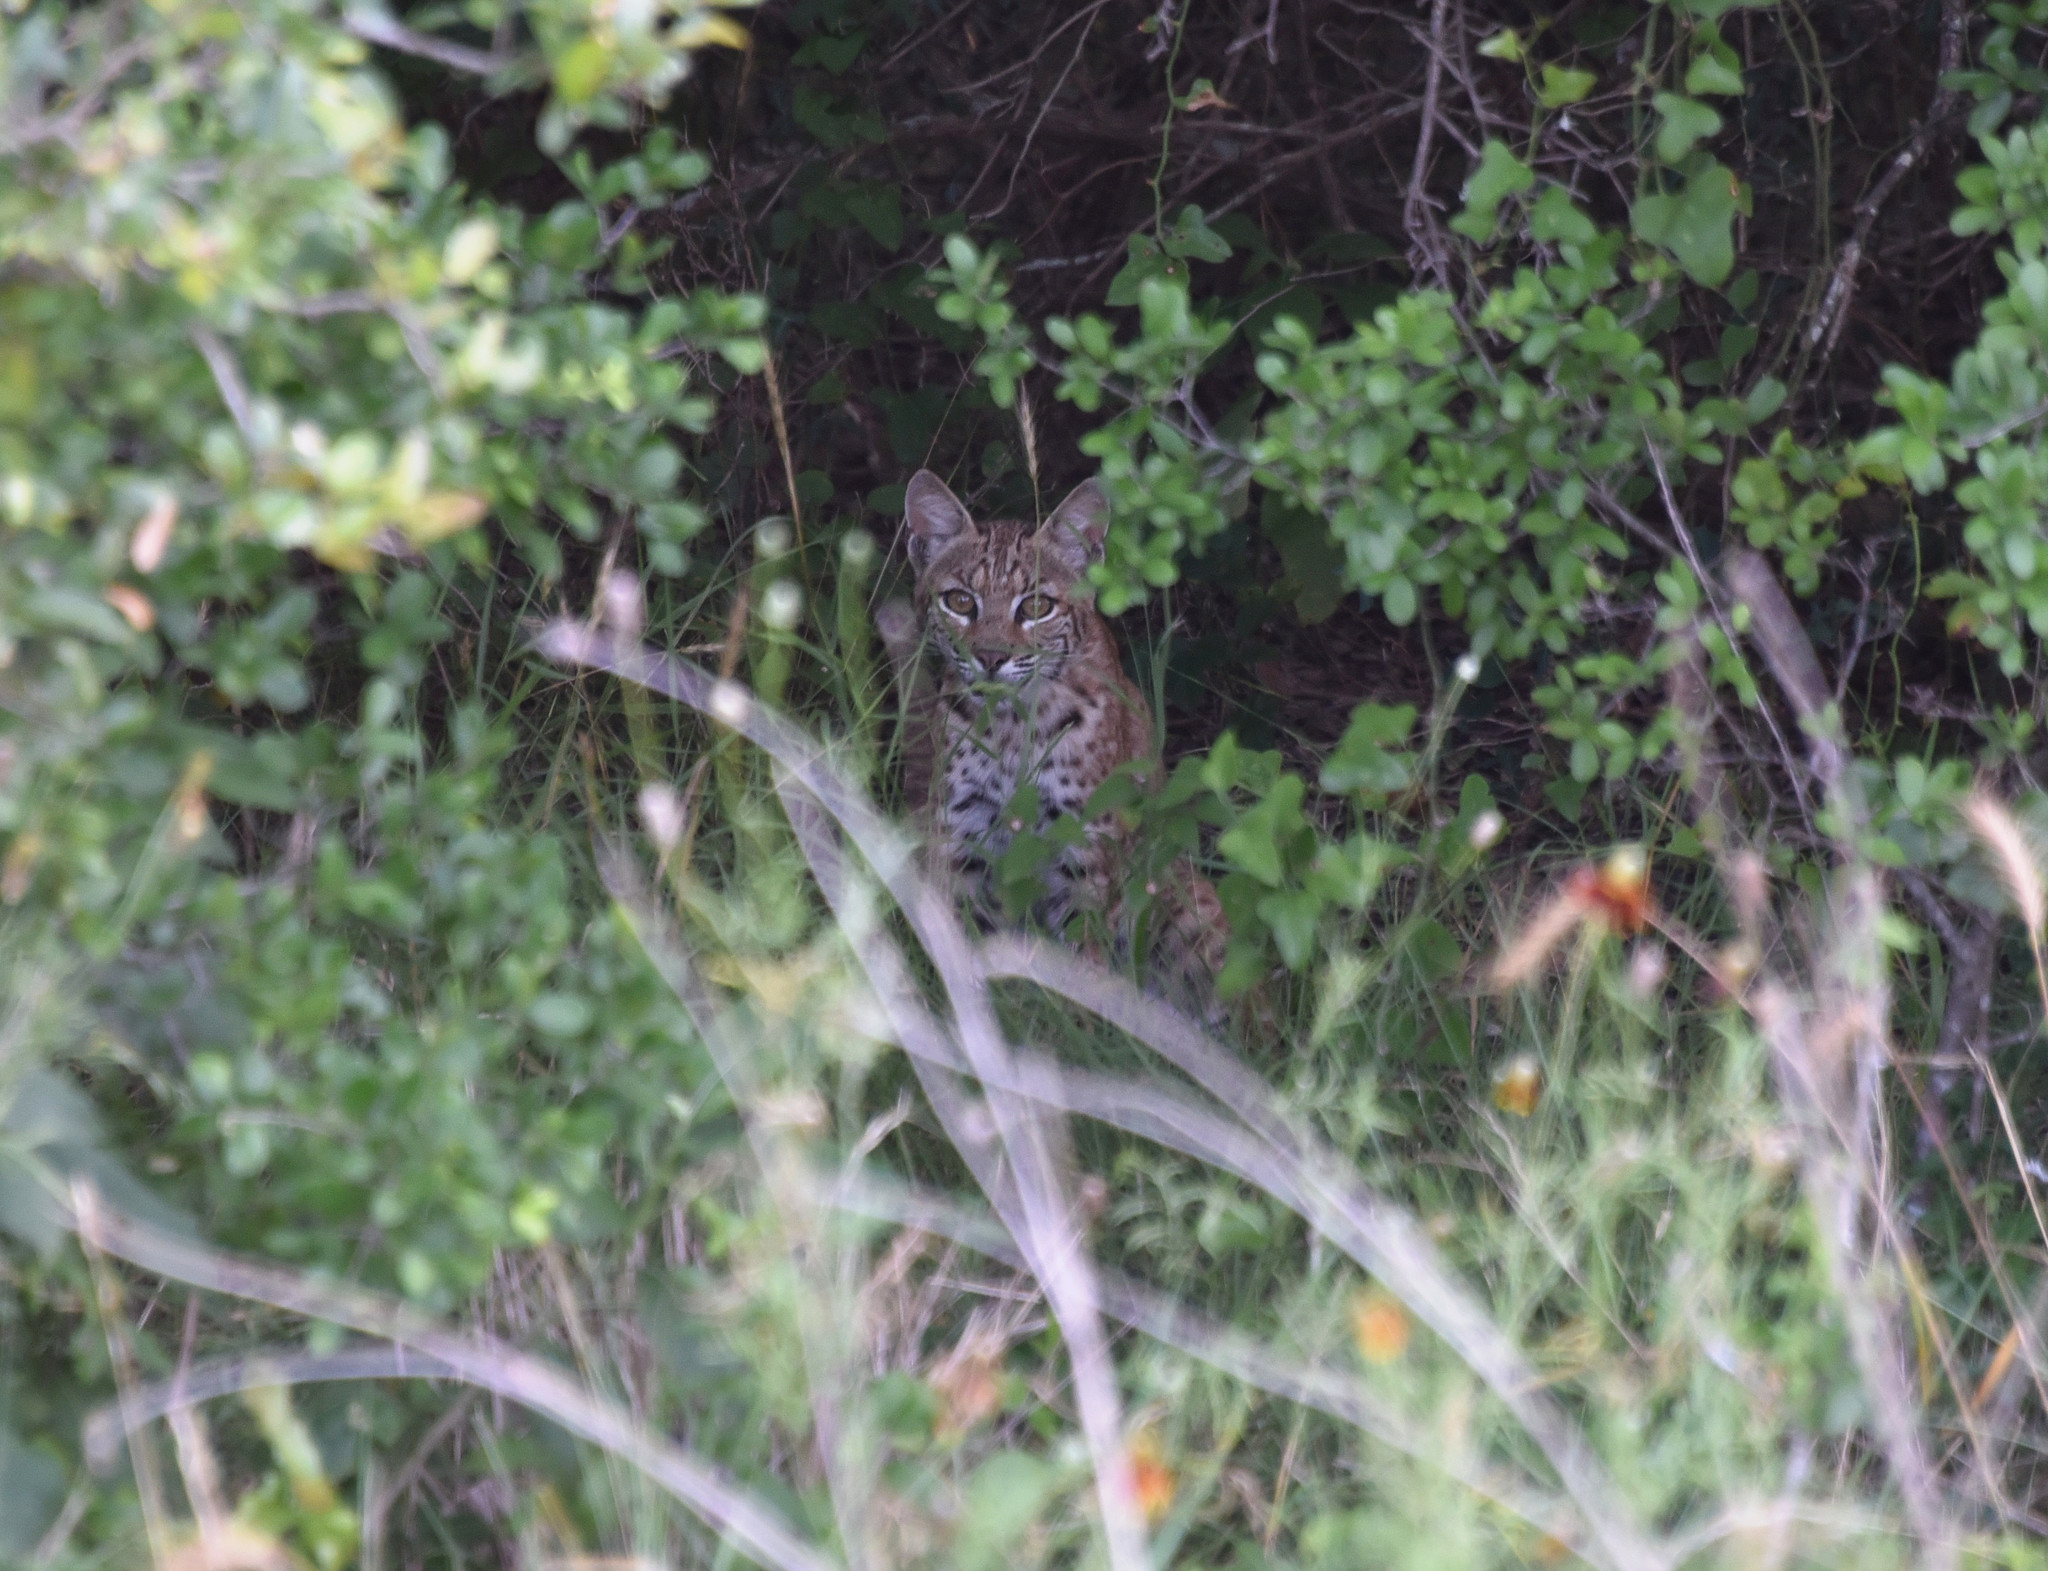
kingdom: Animalia
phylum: Chordata
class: Mammalia
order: Carnivora
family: Felidae
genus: Lynx
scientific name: Lynx rufus
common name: Bobcat
